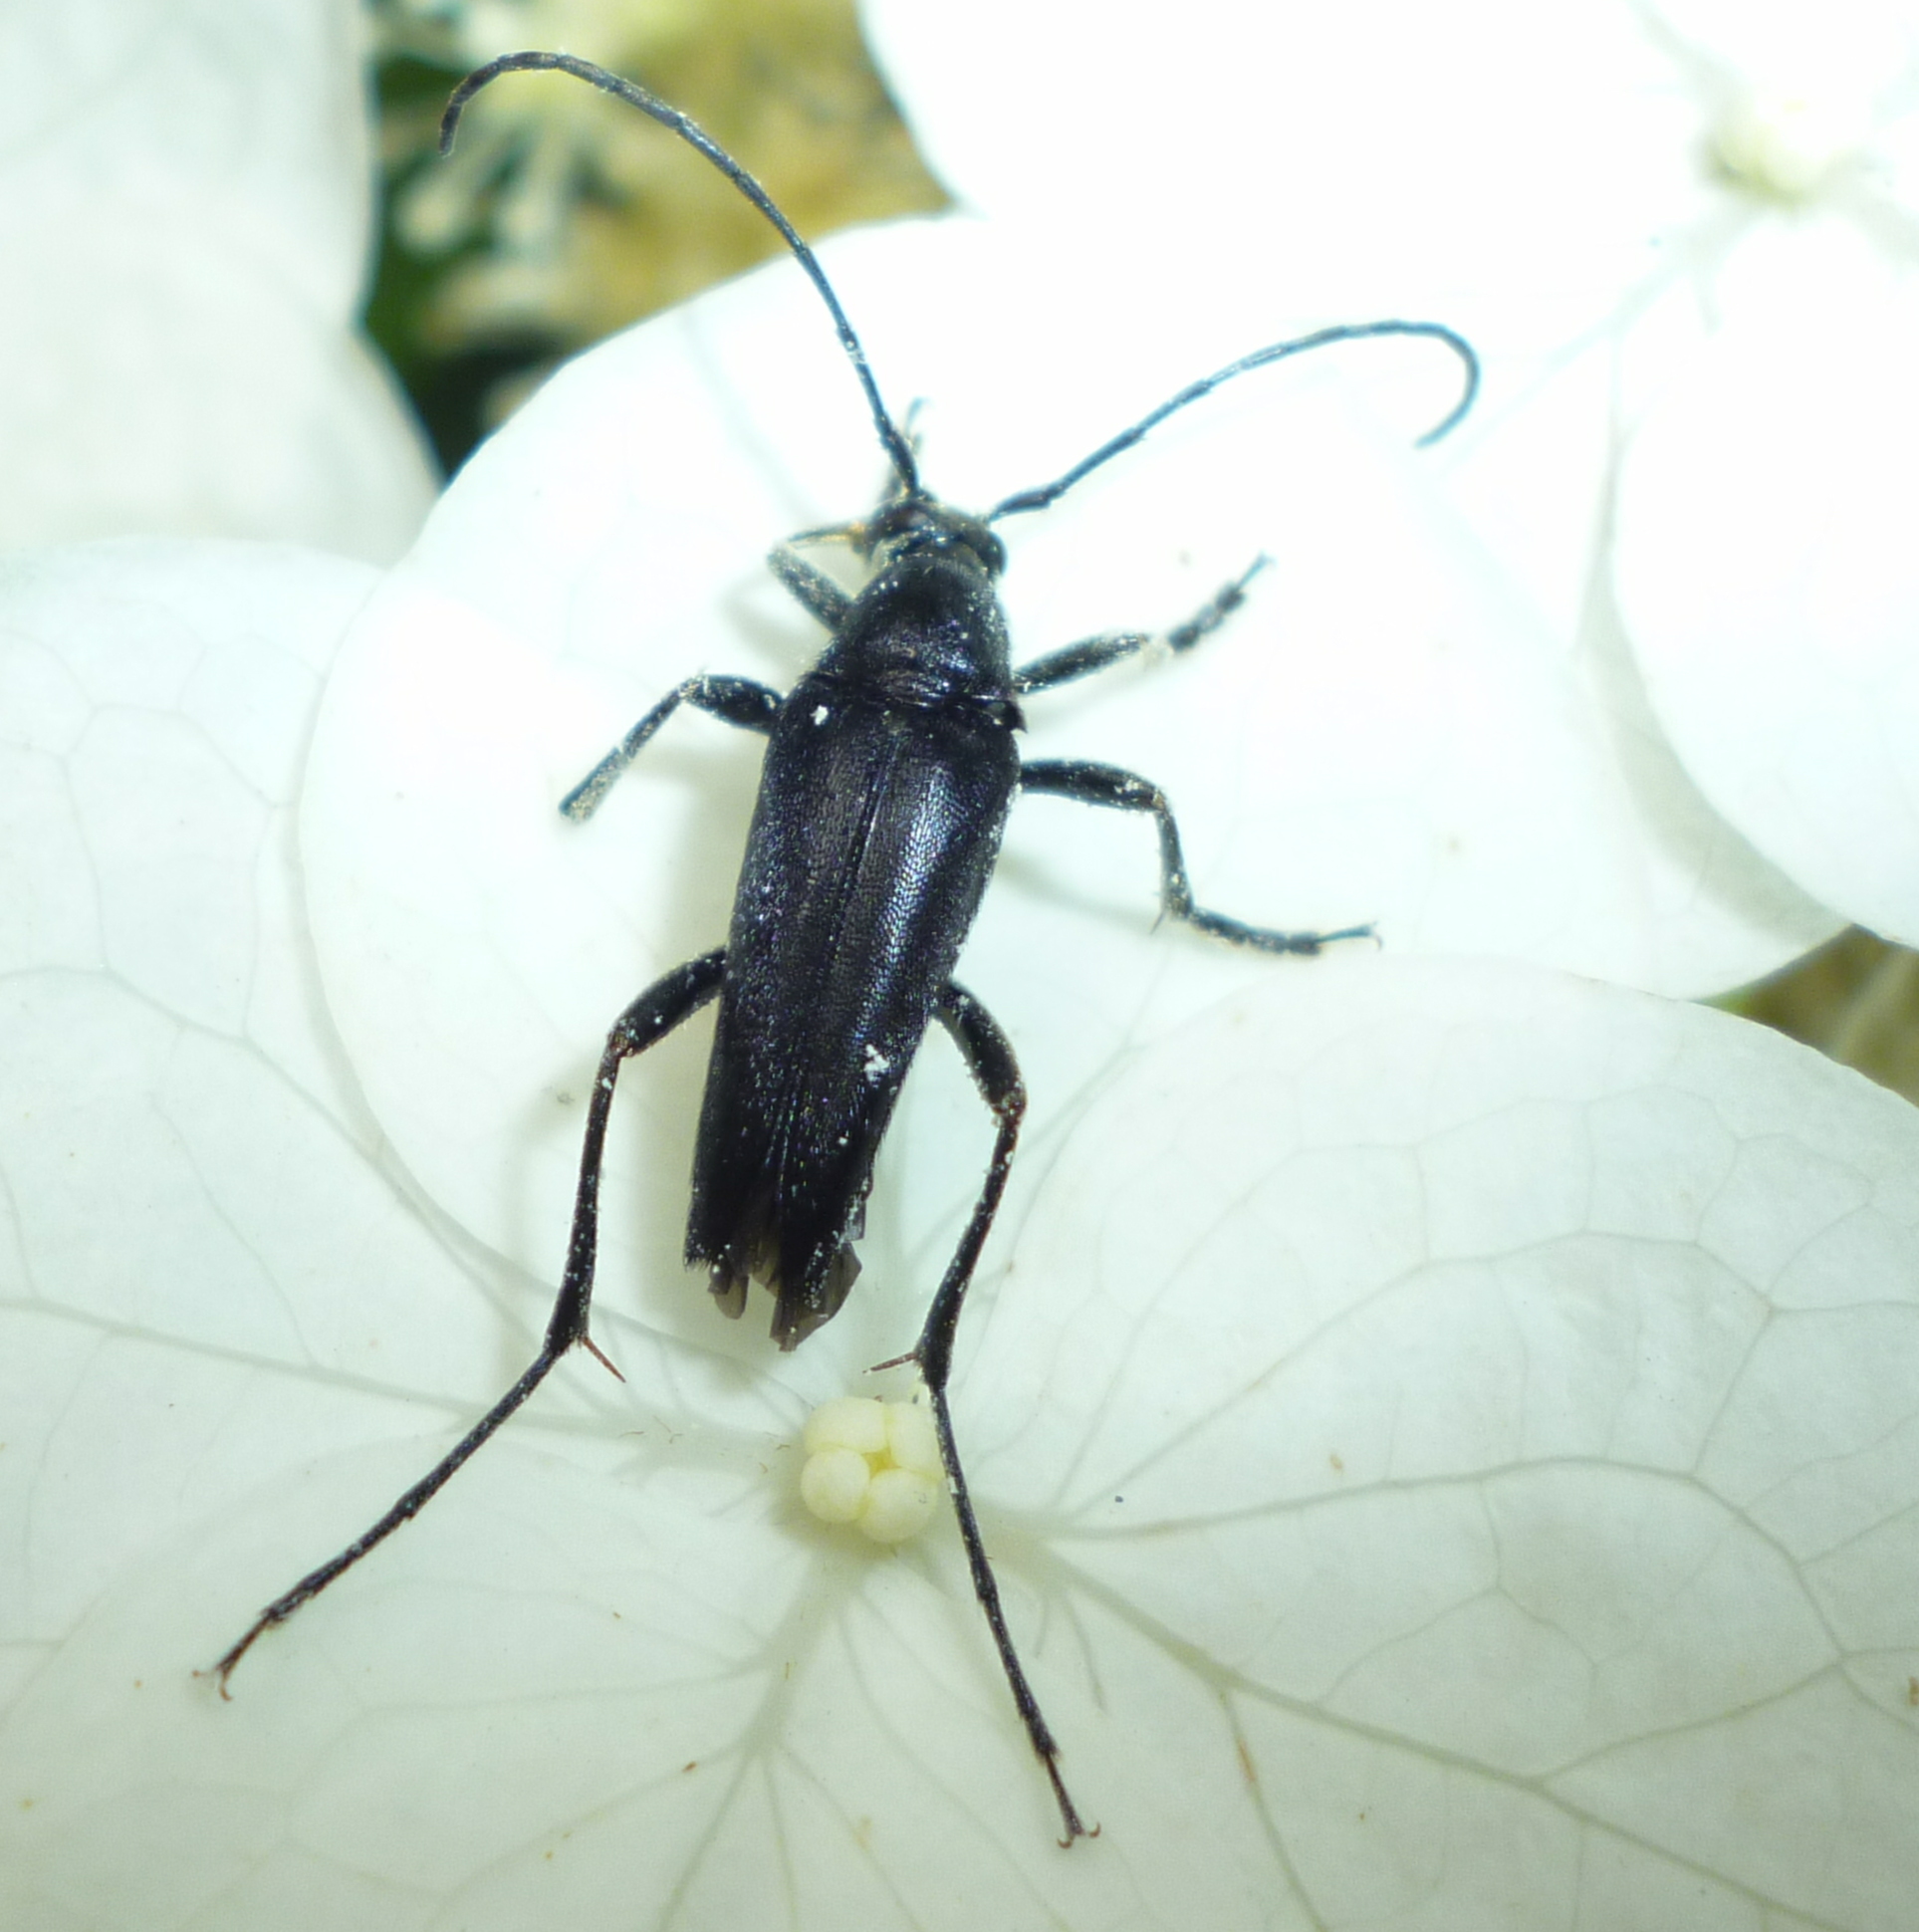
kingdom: Animalia
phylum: Arthropoda
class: Insecta
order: Coleoptera
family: Cerambycidae
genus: Typocerus
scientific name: Typocerus lugubris
